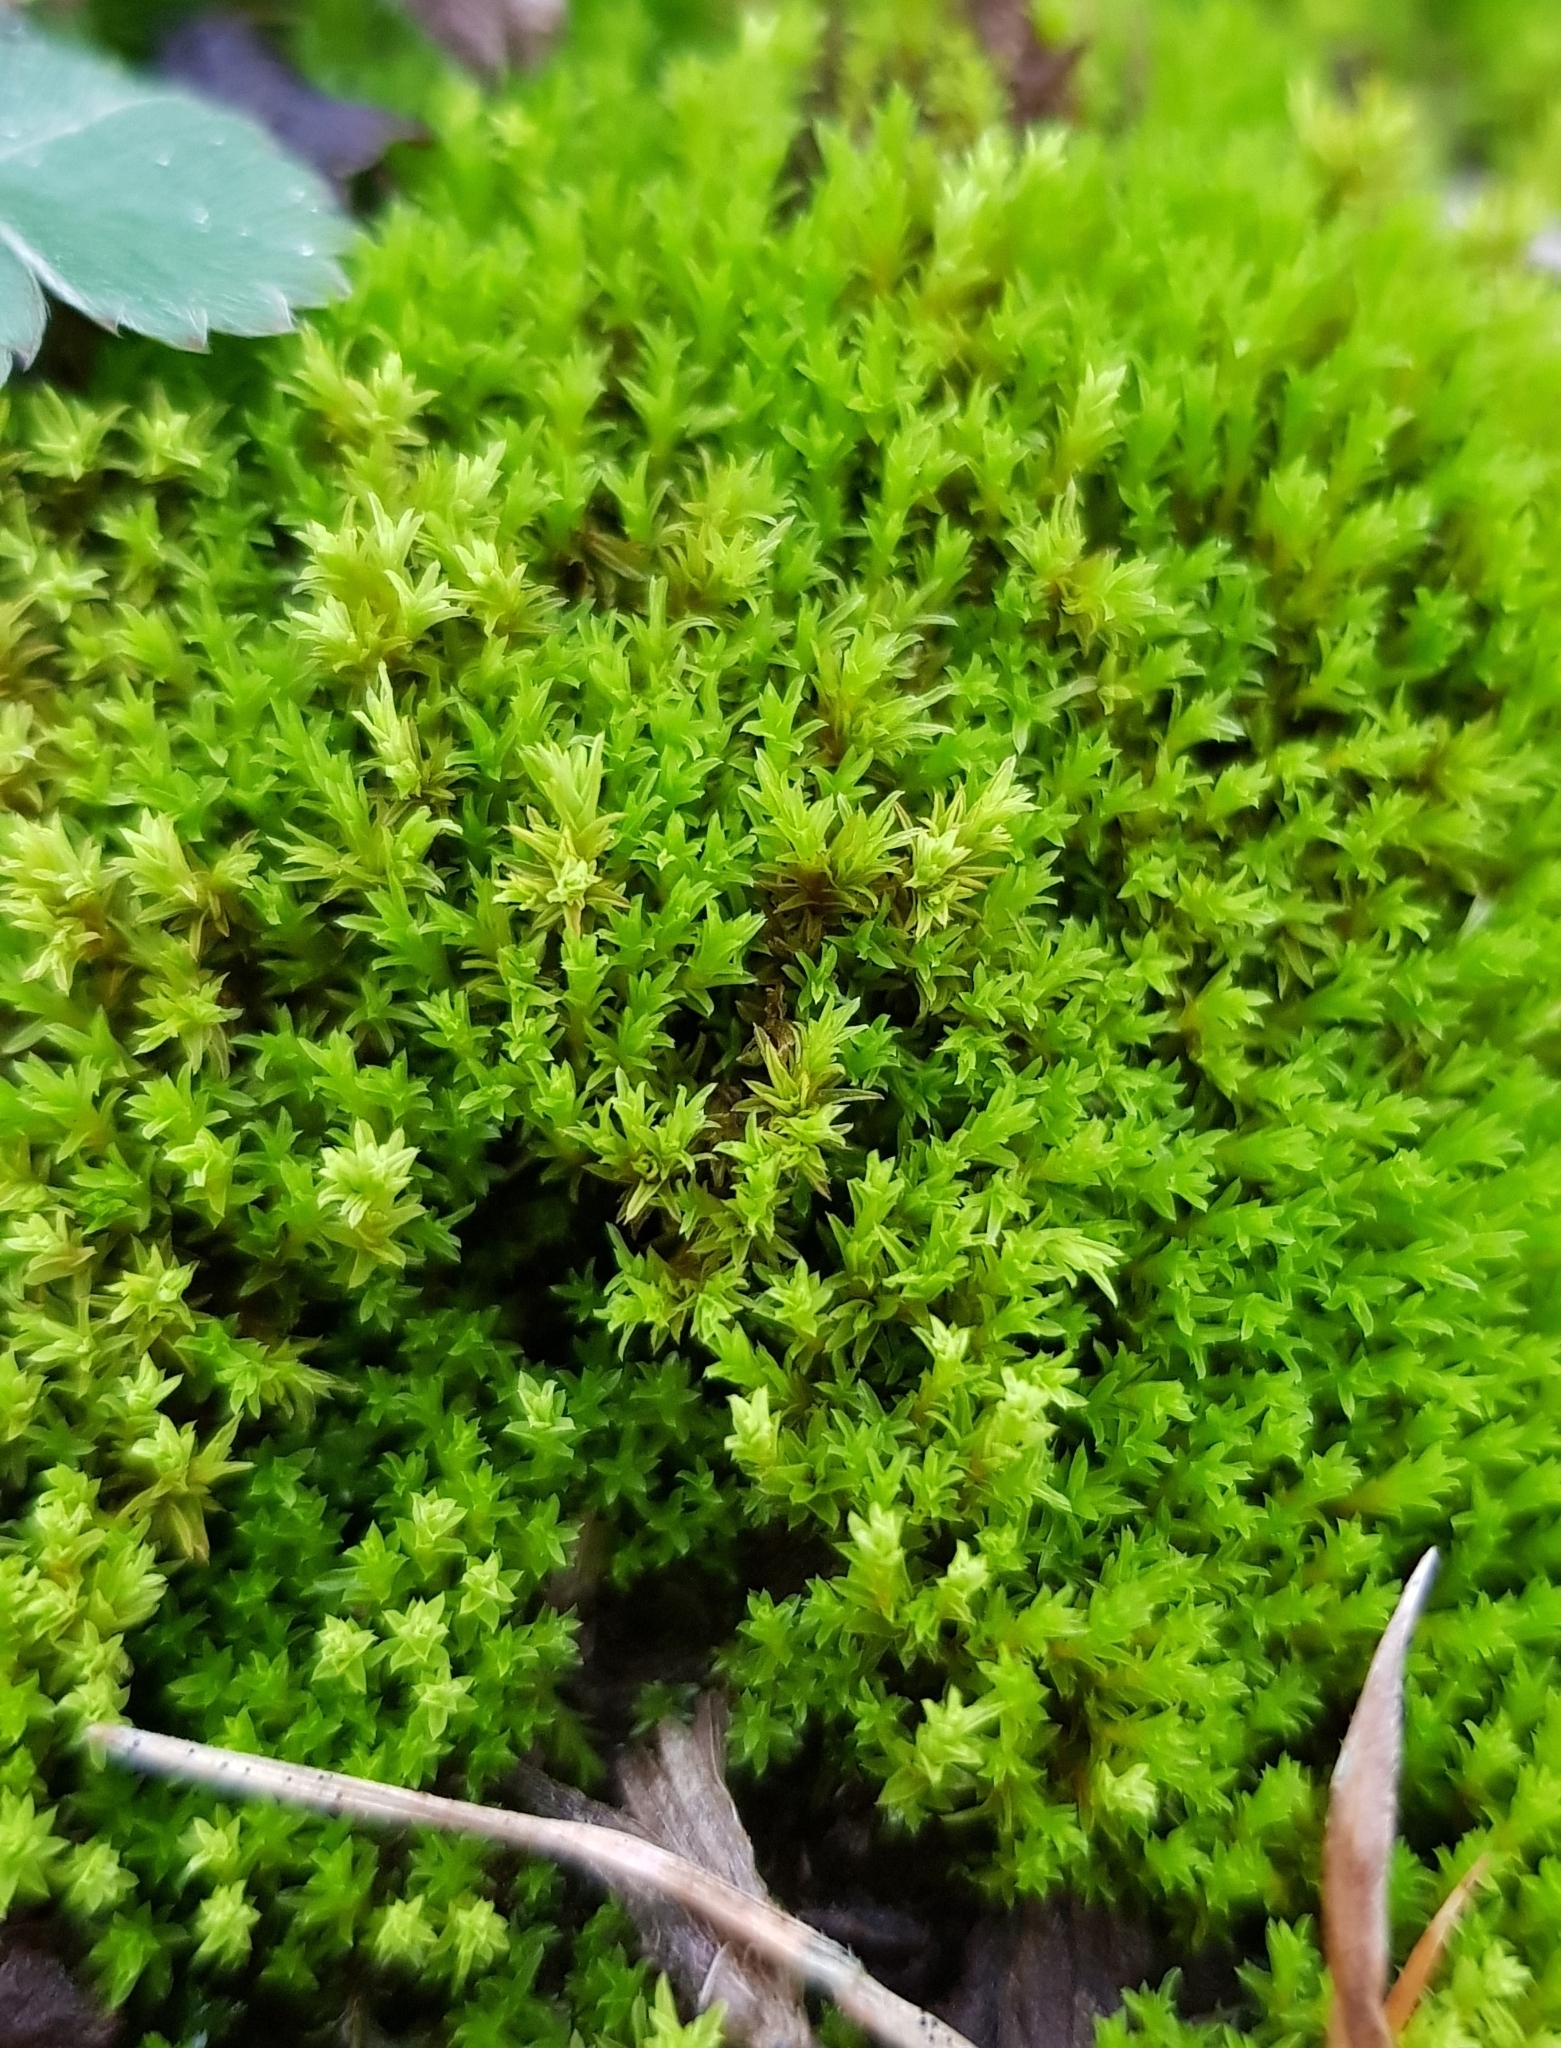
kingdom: Plantae
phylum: Bryophyta
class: Bryopsida
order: Pottiales
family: Pottiaceae
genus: Barbula
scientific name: Barbula unguiculata
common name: Prickly beard moss
